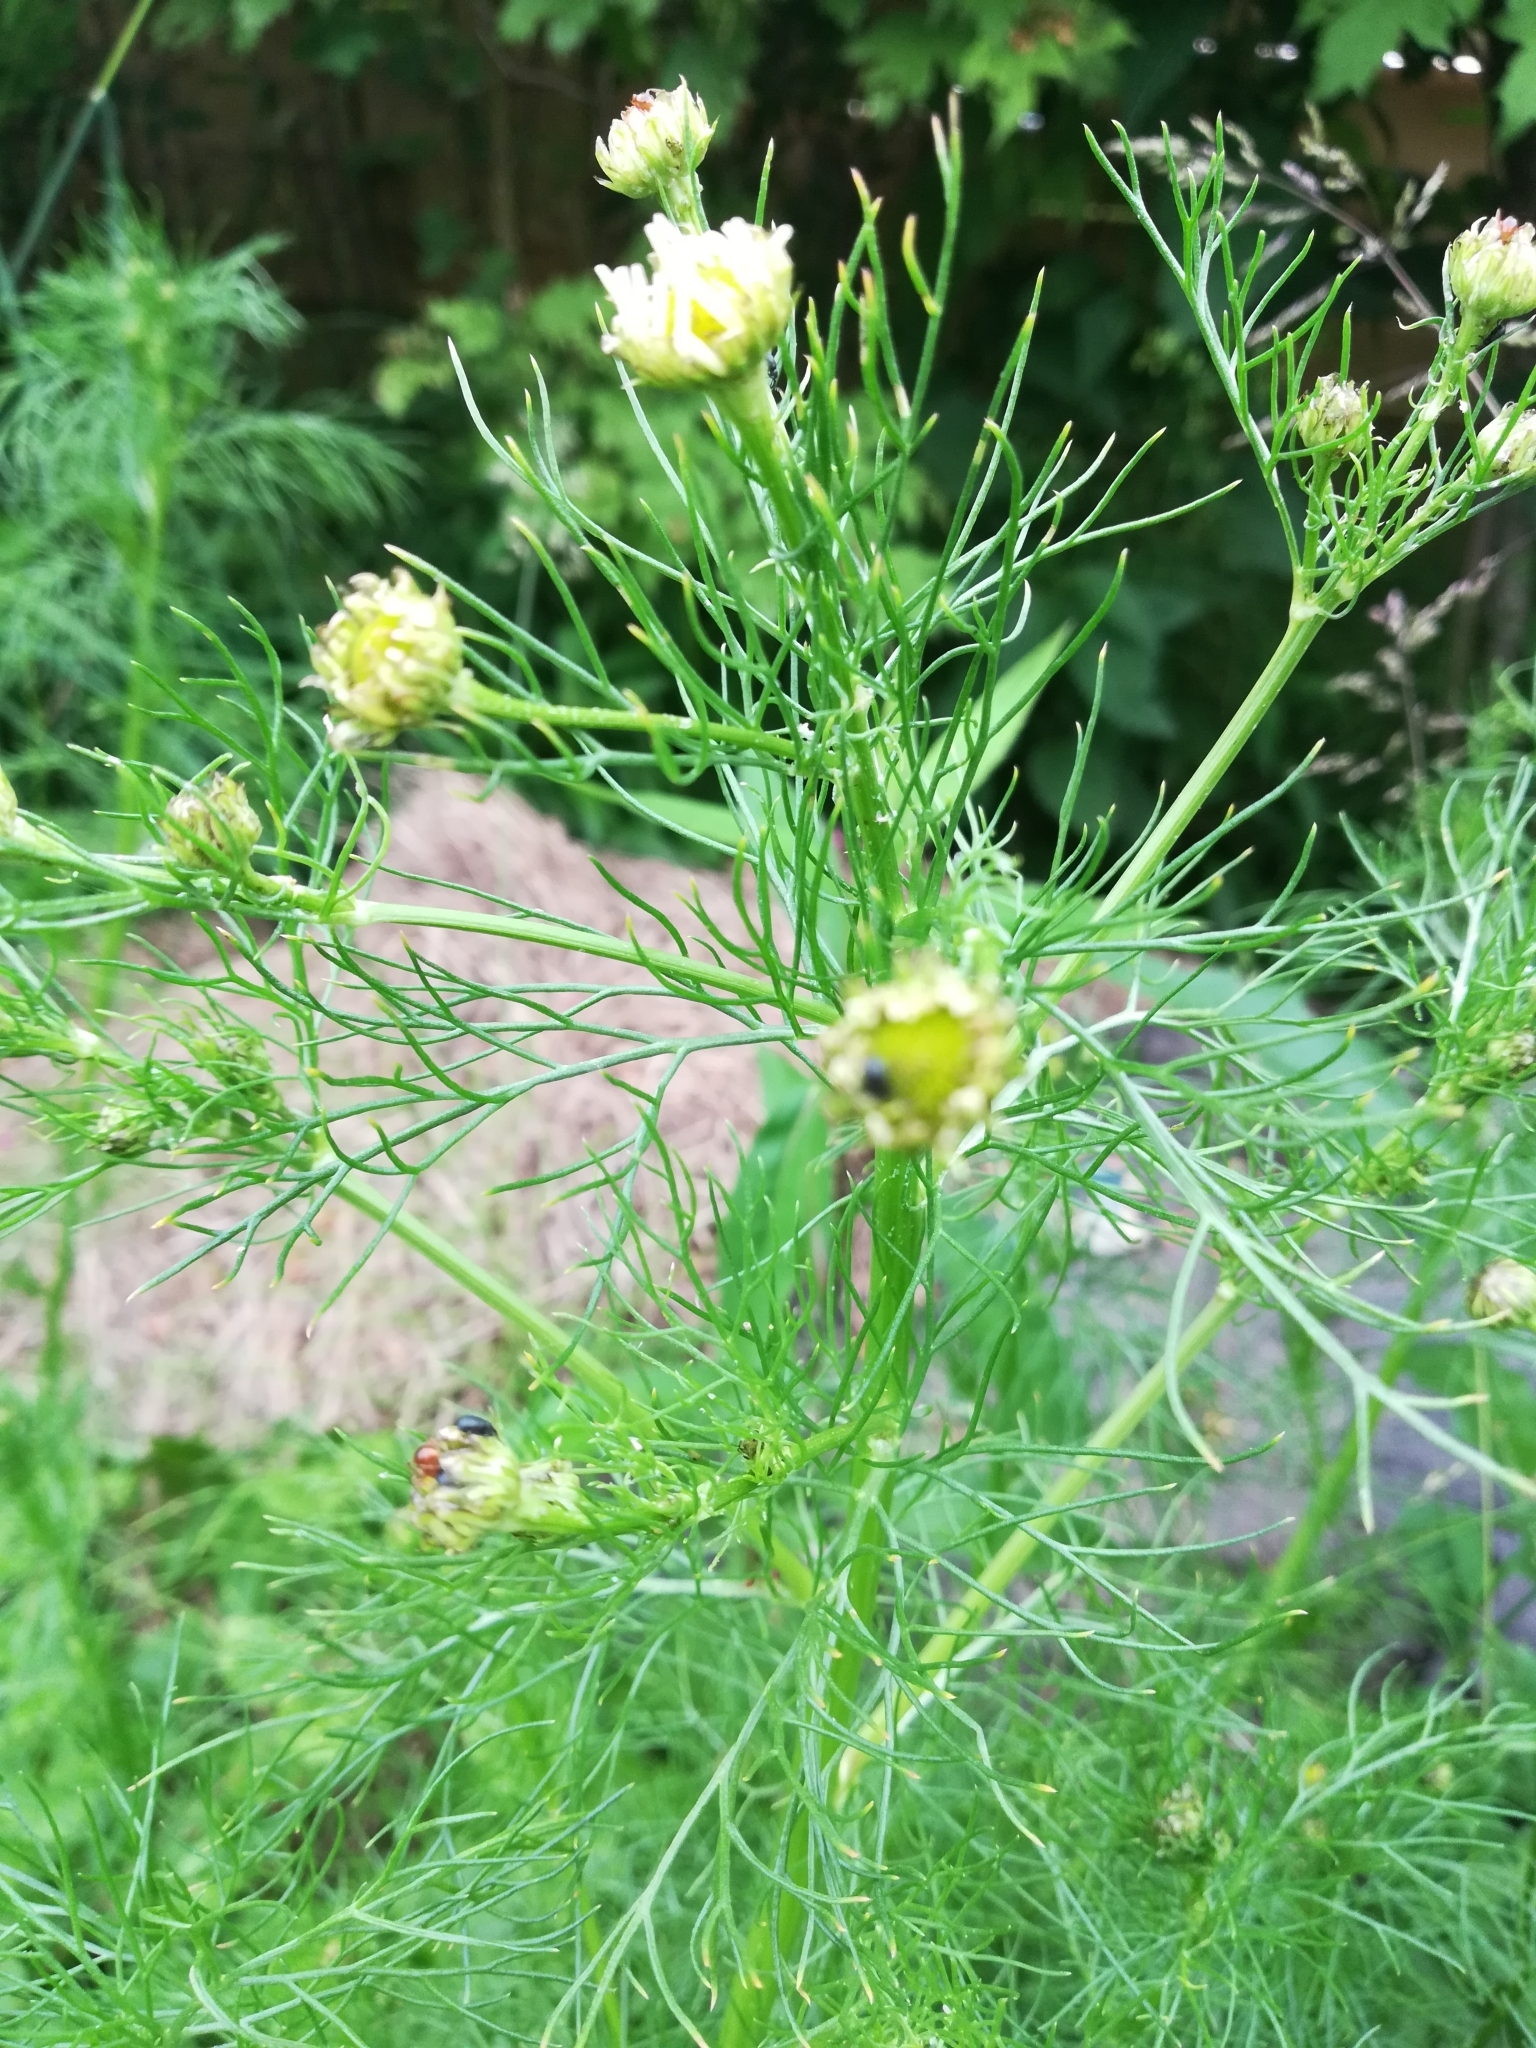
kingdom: Plantae
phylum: Tracheophyta
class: Magnoliopsida
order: Asterales
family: Asteraceae
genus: Tripleurospermum
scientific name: Tripleurospermum inodorum
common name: Scentless mayweed
